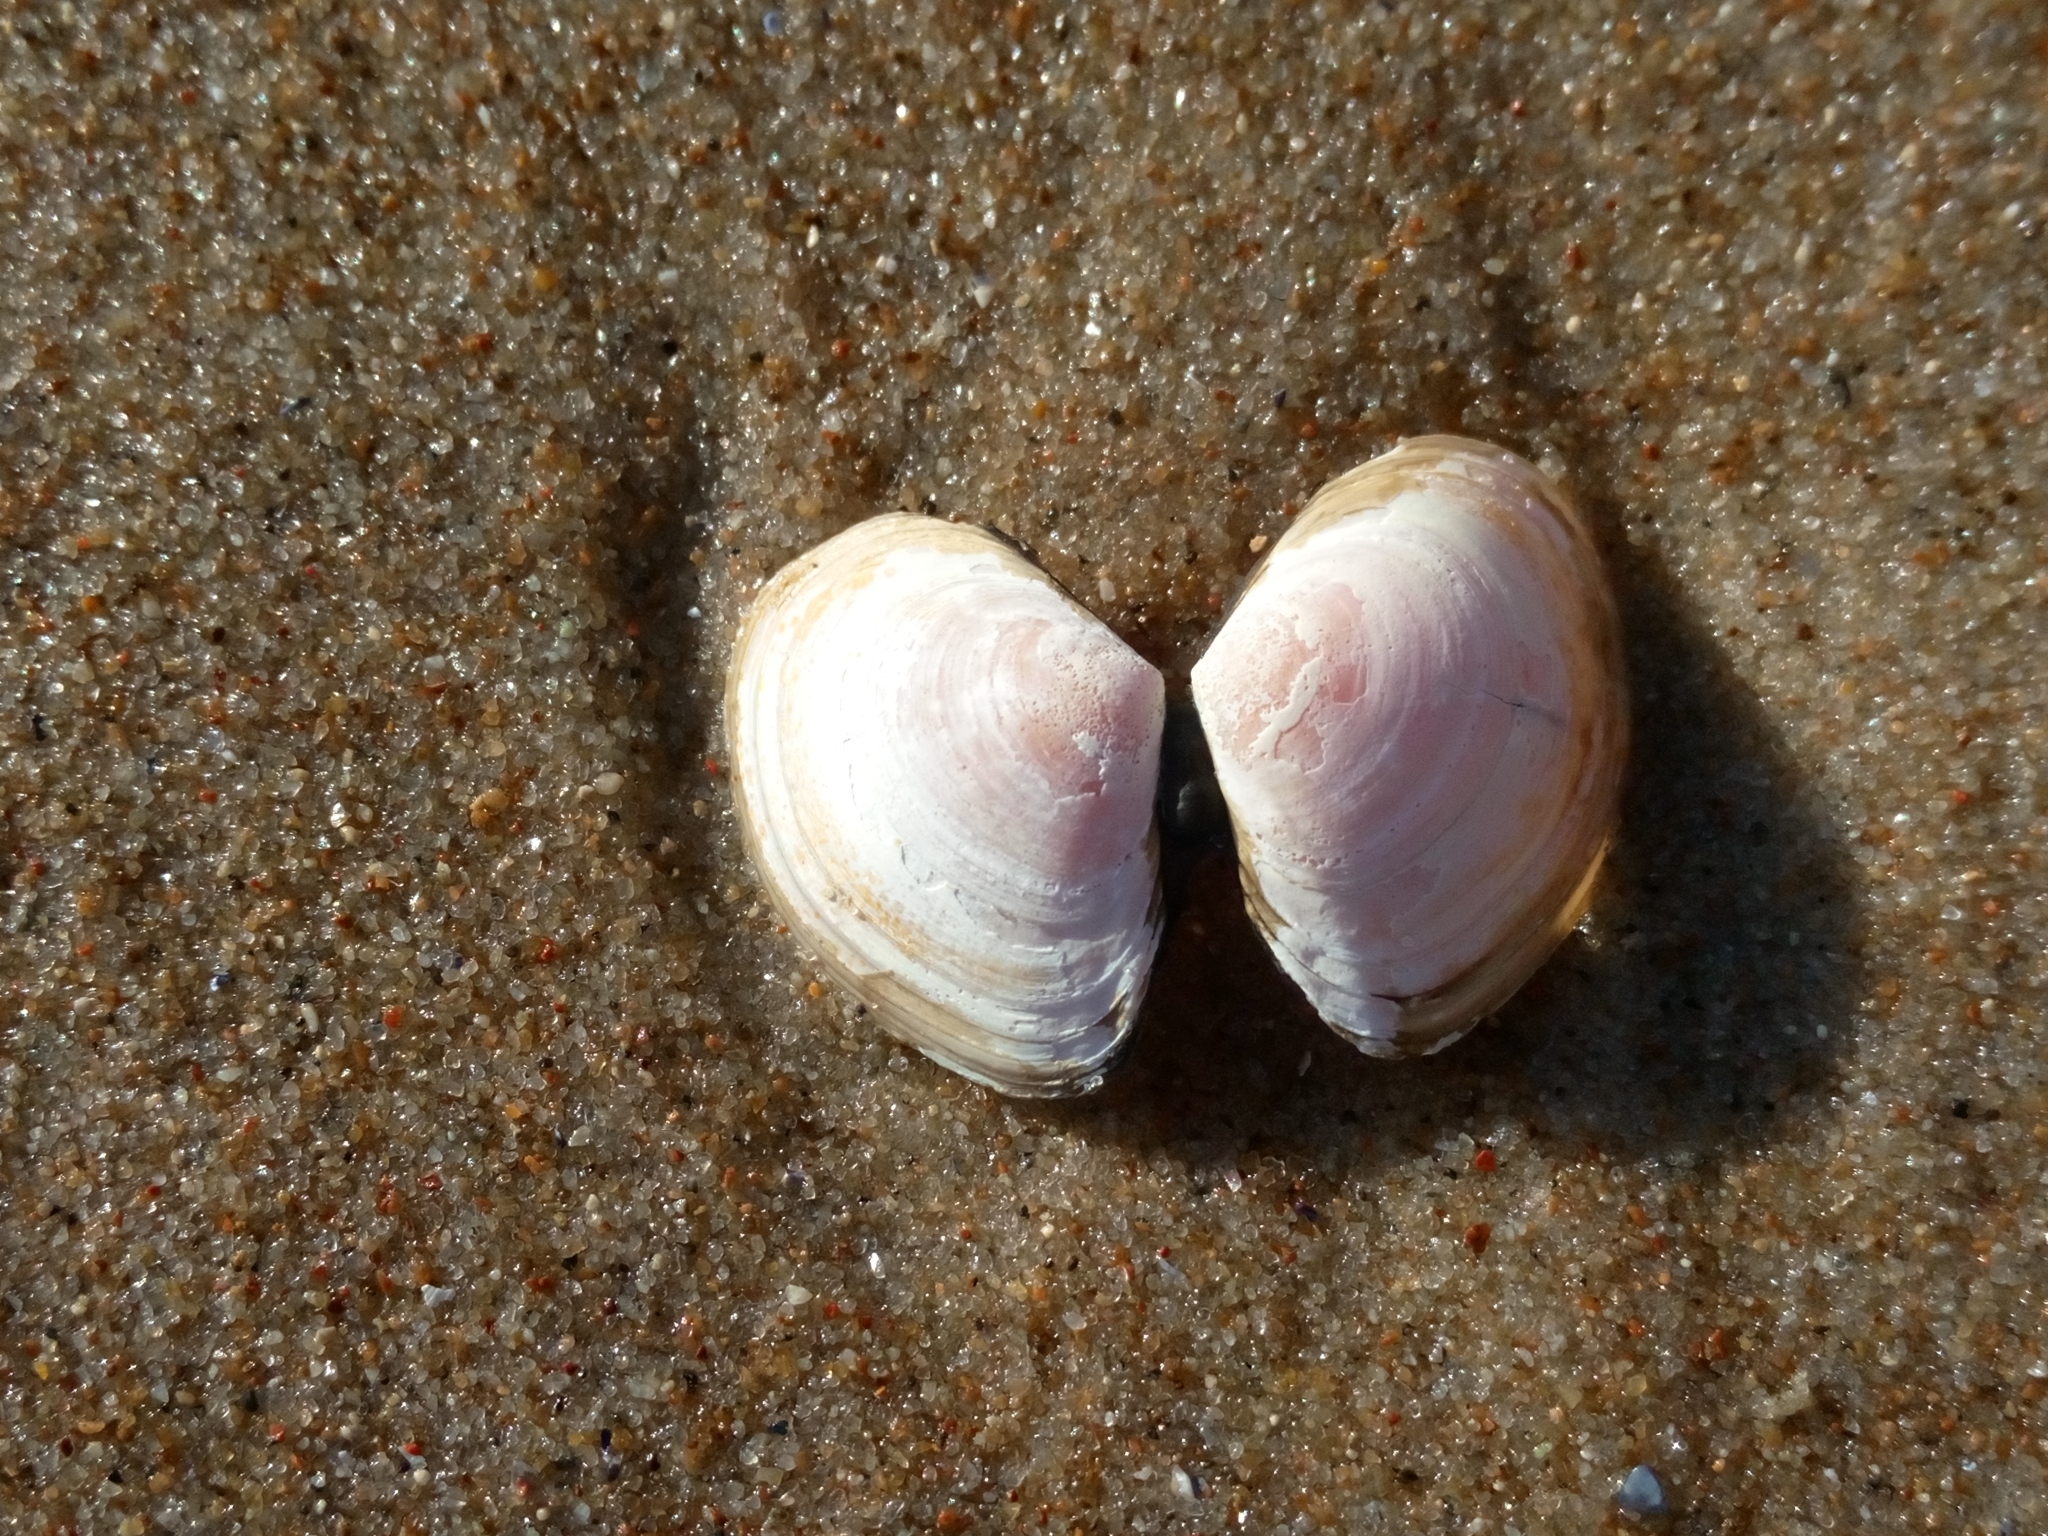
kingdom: Animalia
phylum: Mollusca
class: Bivalvia
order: Cardiida
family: Tellinidae
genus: Macoma
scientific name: Macoma balthica
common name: Baltic tellin
